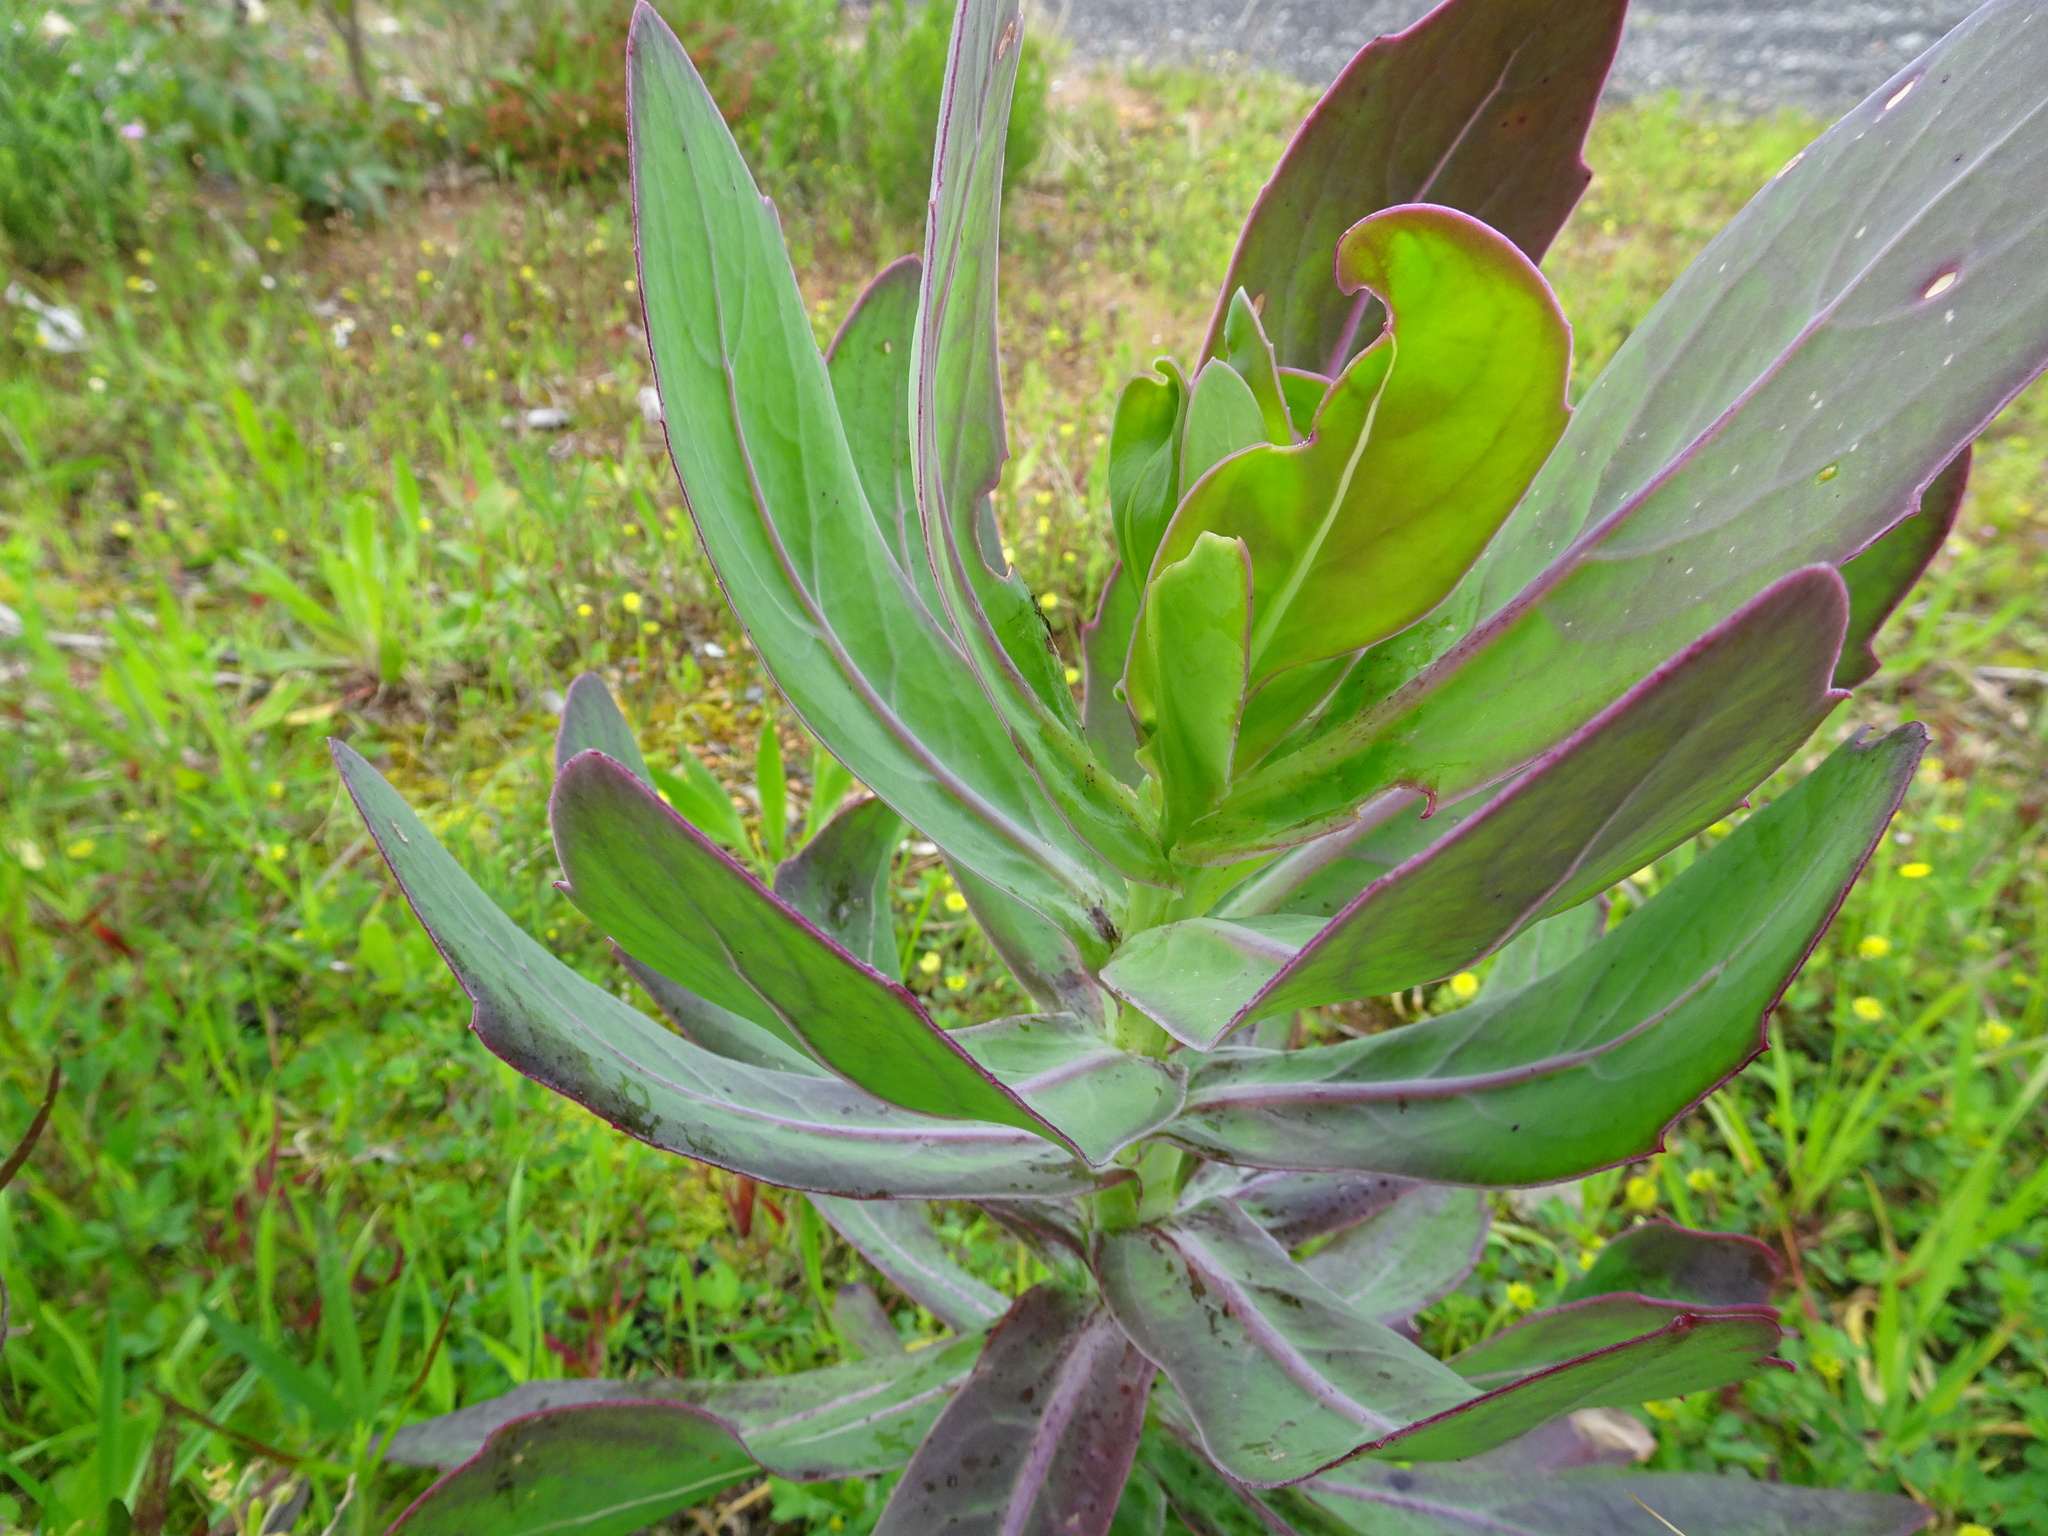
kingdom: Plantae
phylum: Tracheophyta
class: Magnoliopsida
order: Asterales
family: Asteraceae
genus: Othonna
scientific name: Othonna quinquedentata
